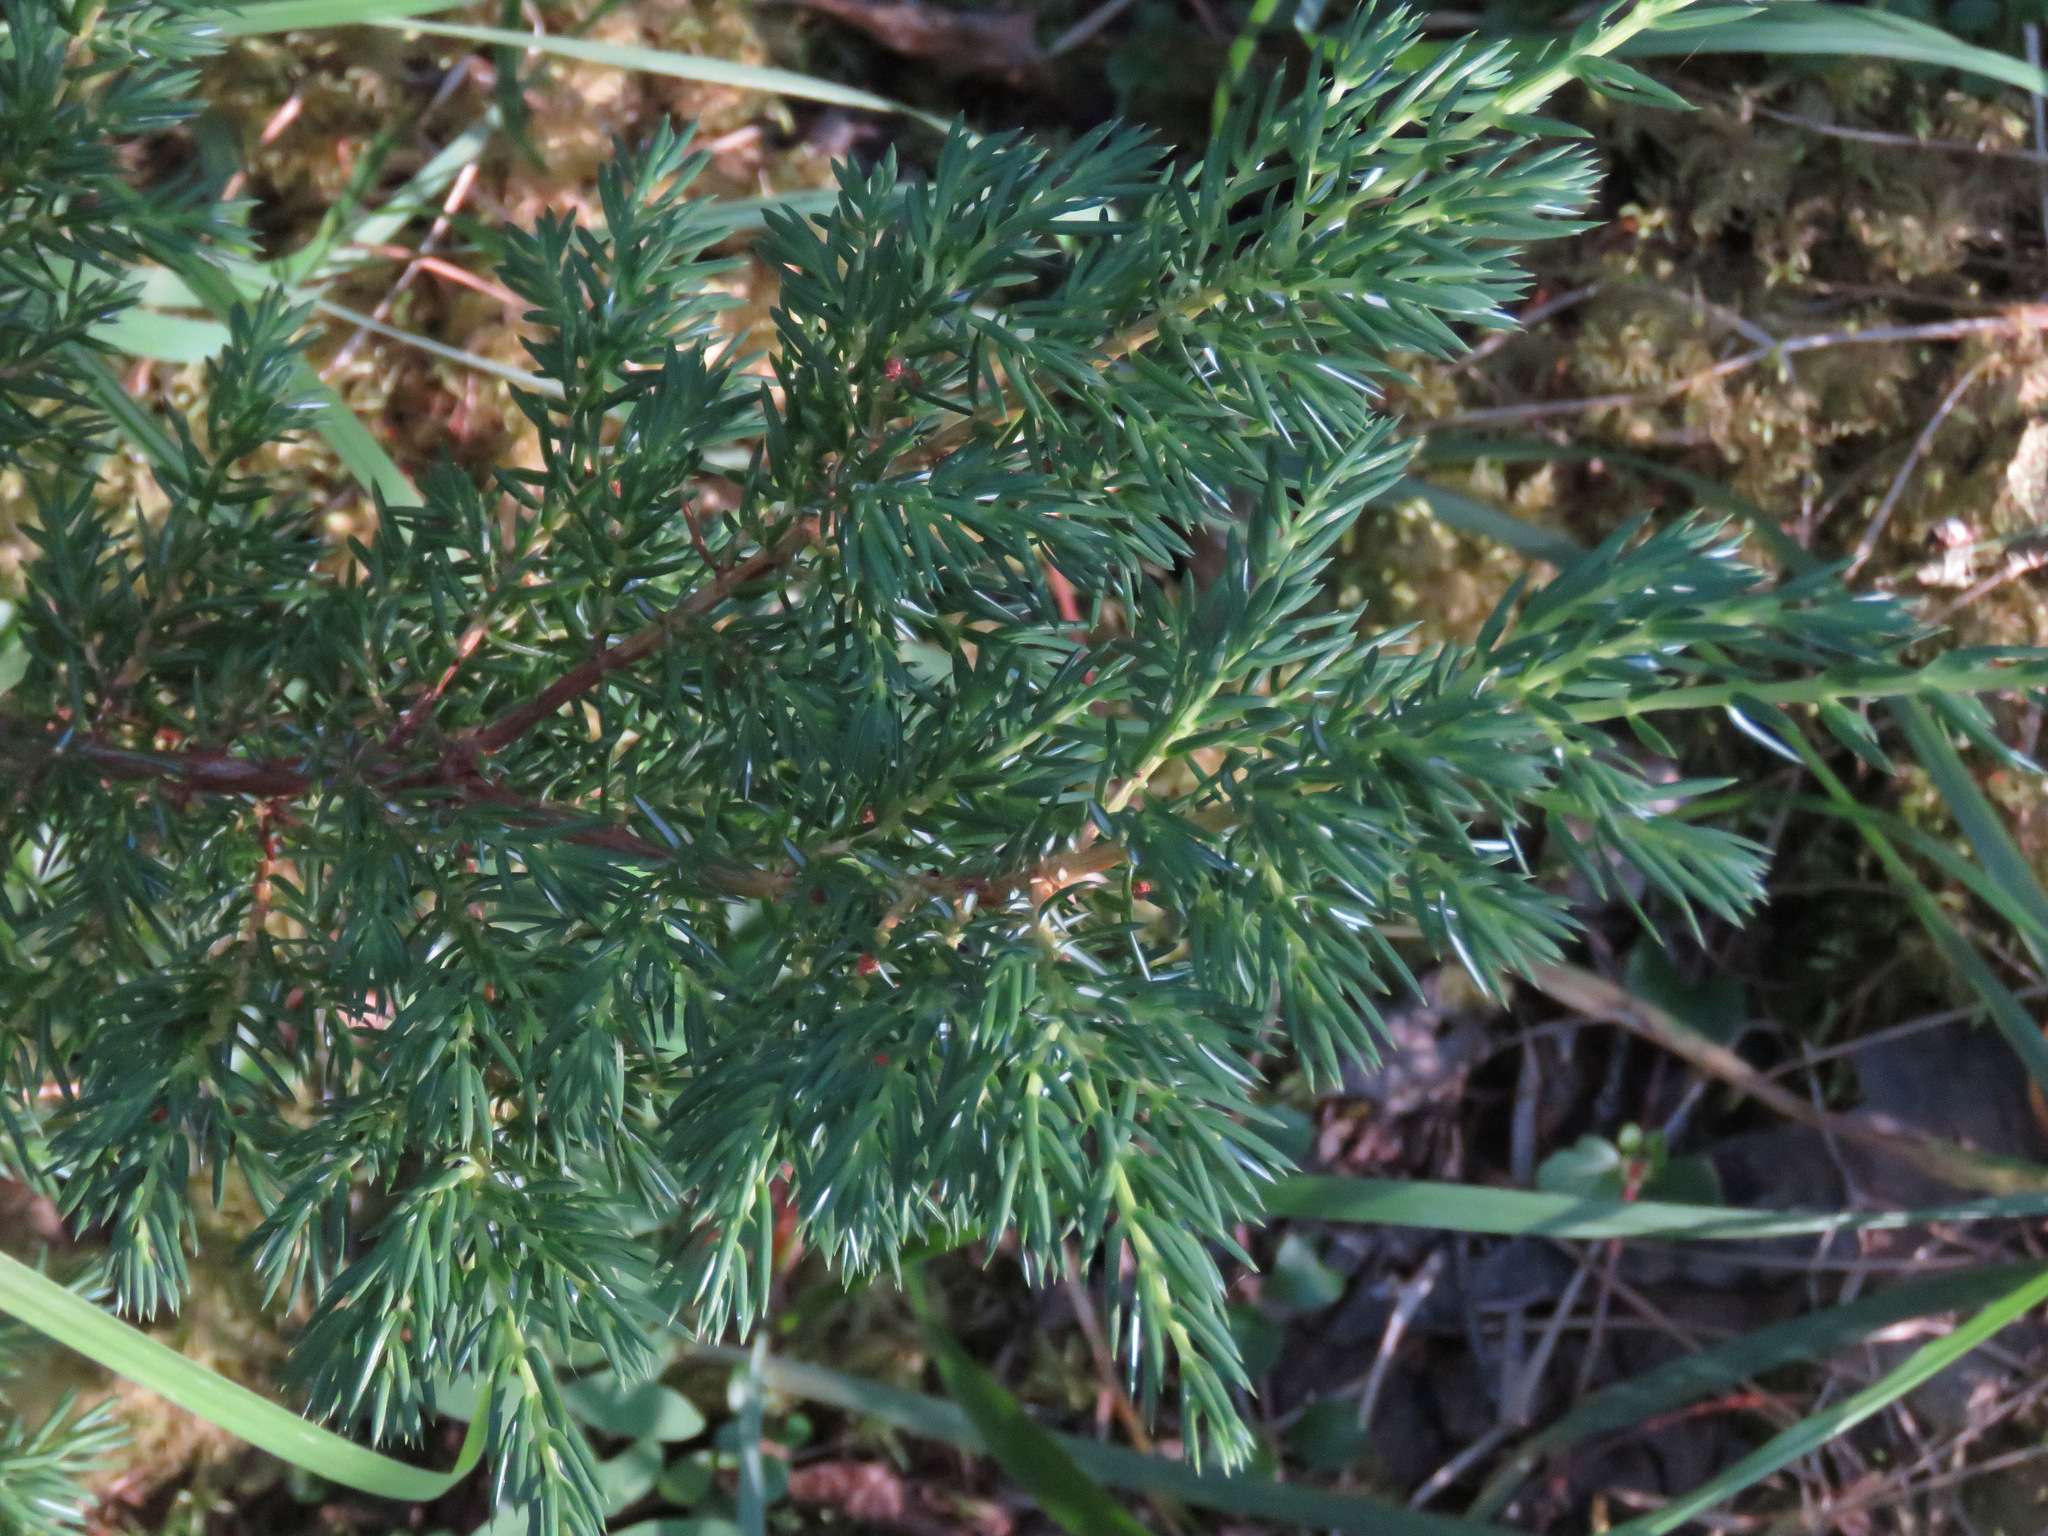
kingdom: Plantae
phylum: Tracheophyta
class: Pinopsida
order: Pinales
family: Cupressaceae
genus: Juniperus
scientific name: Juniperus communis
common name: Common juniper
